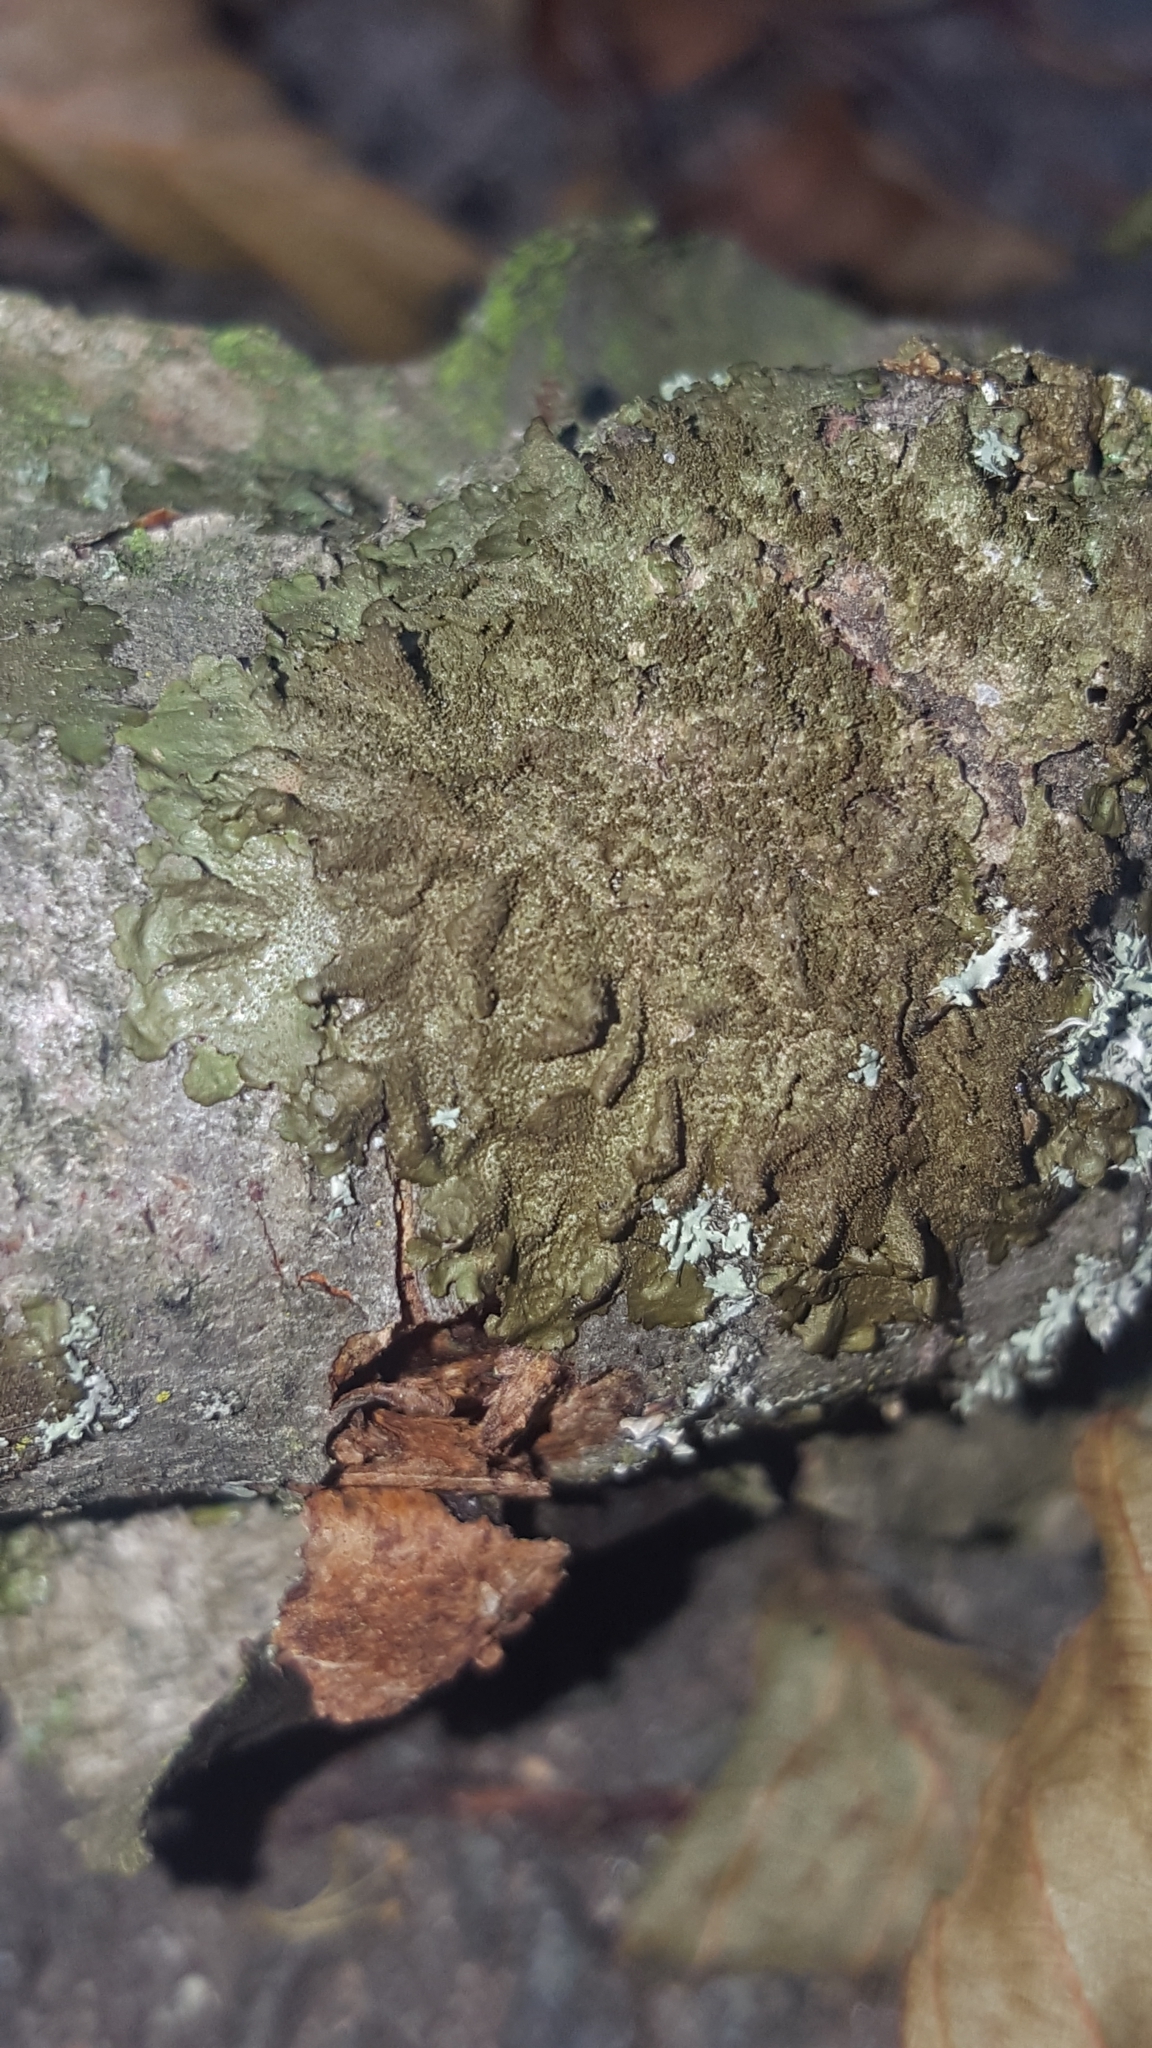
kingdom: Fungi
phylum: Ascomycota
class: Lecanoromycetes
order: Lecanorales
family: Parmeliaceae
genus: Melanelixia
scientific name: Melanelixia subaurifera
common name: Abraded camouflage lichen
